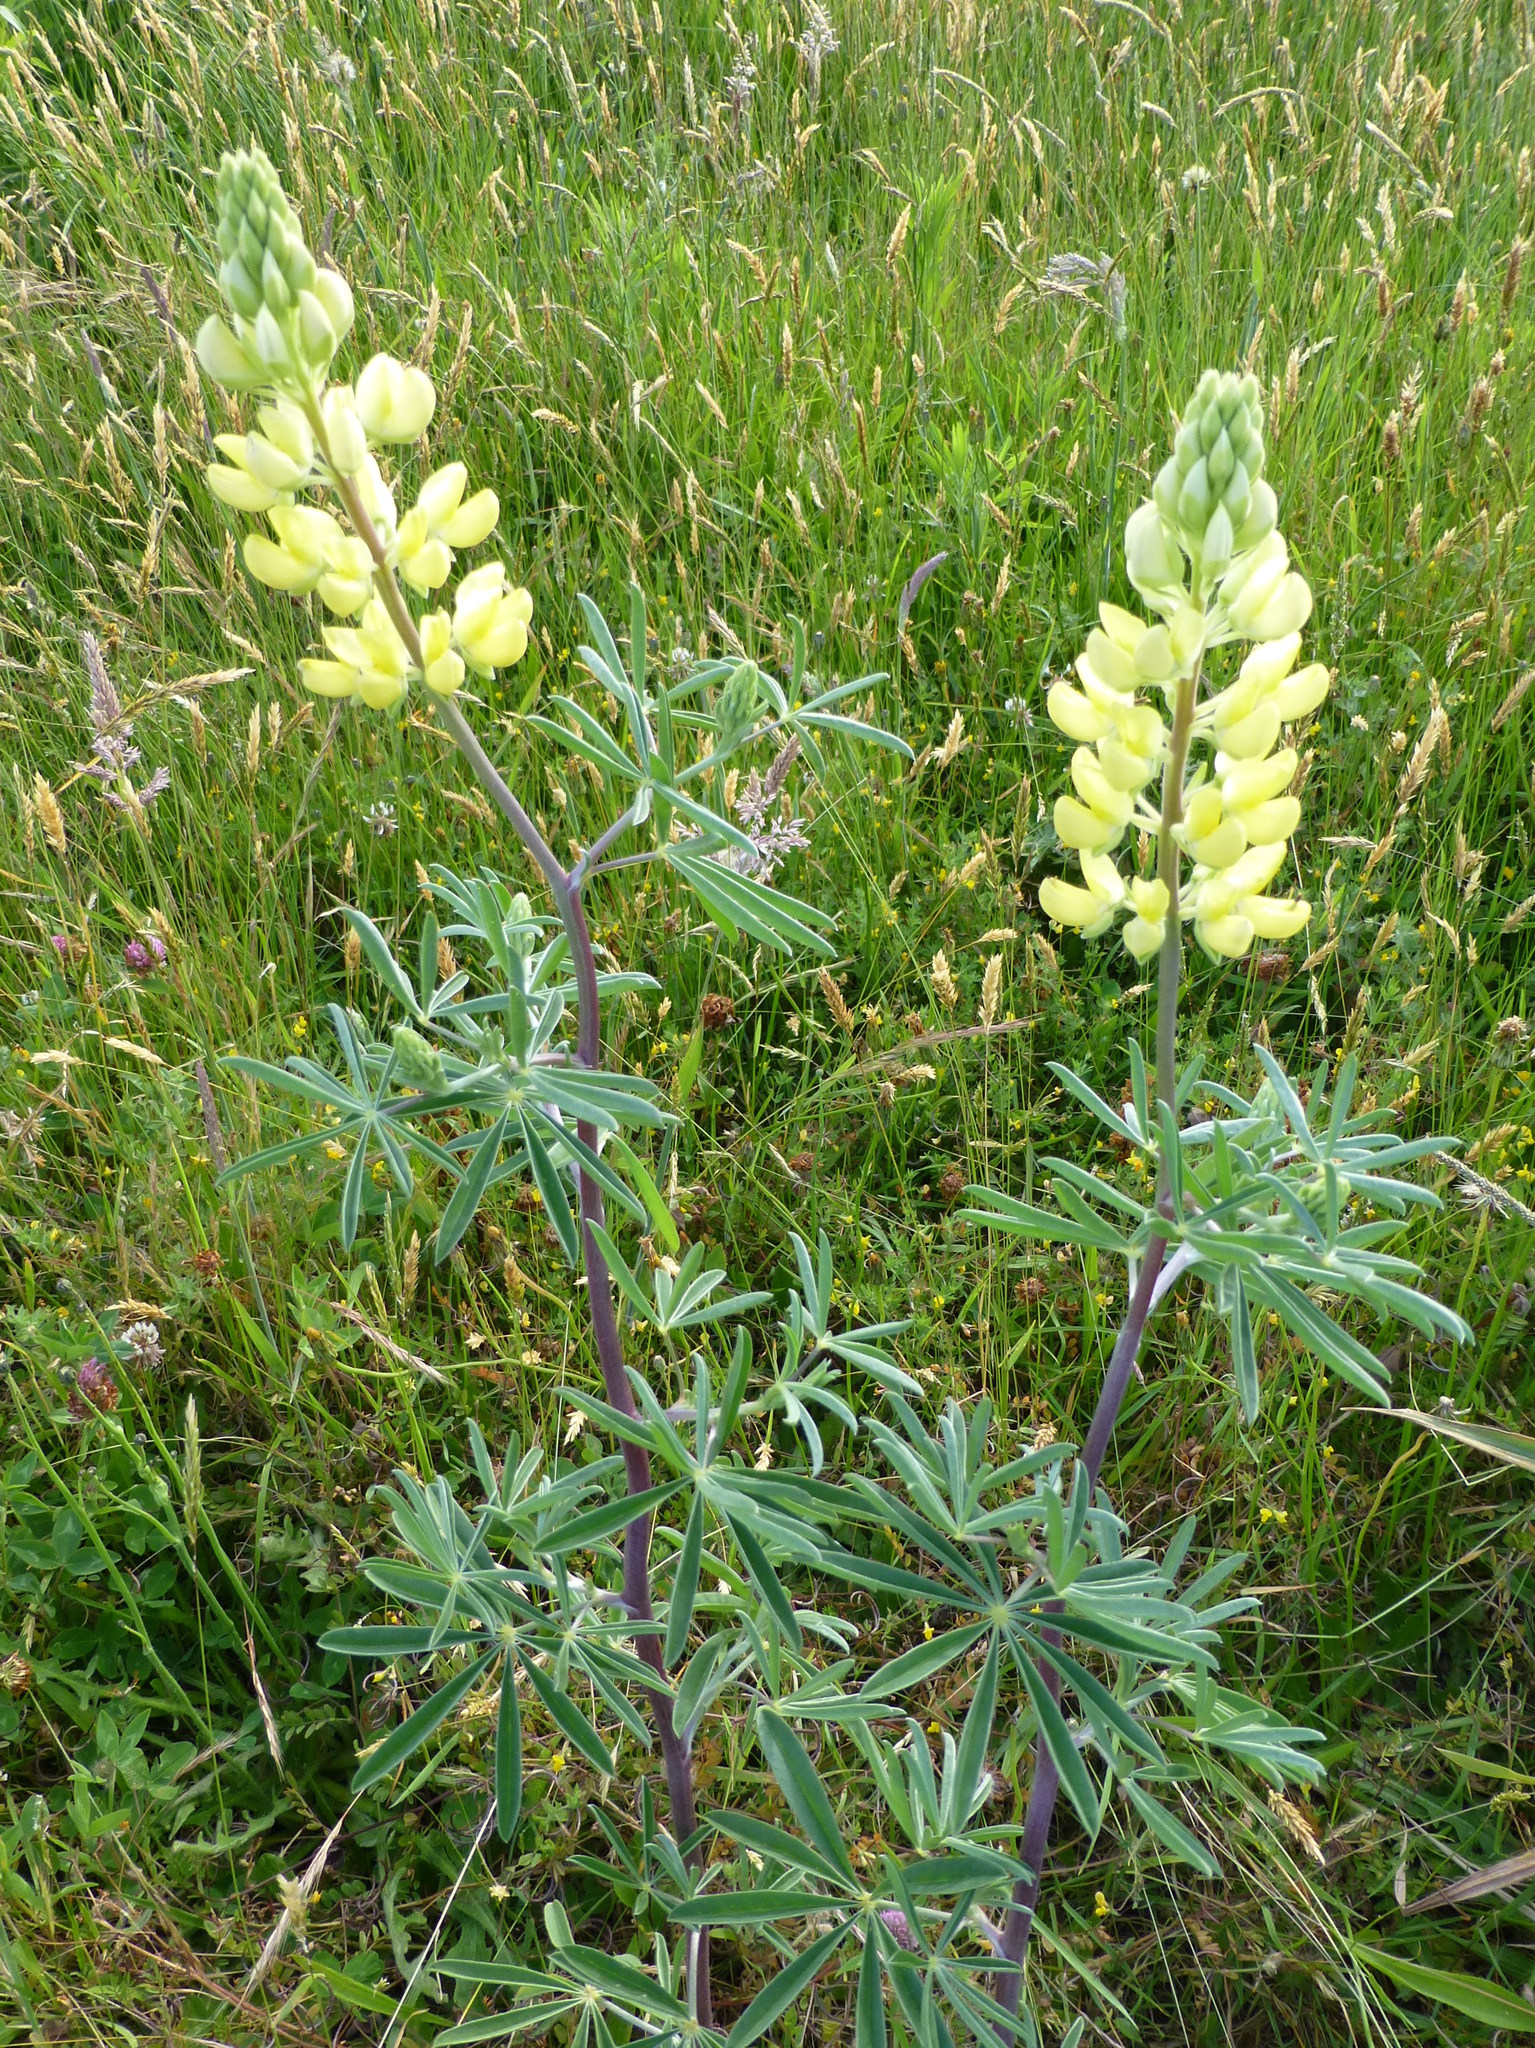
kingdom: Plantae
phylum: Tracheophyta
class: Magnoliopsida
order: Fabales
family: Fabaceae
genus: Lupinus
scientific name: Lupinus arboreus
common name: Yellow bush lupine
